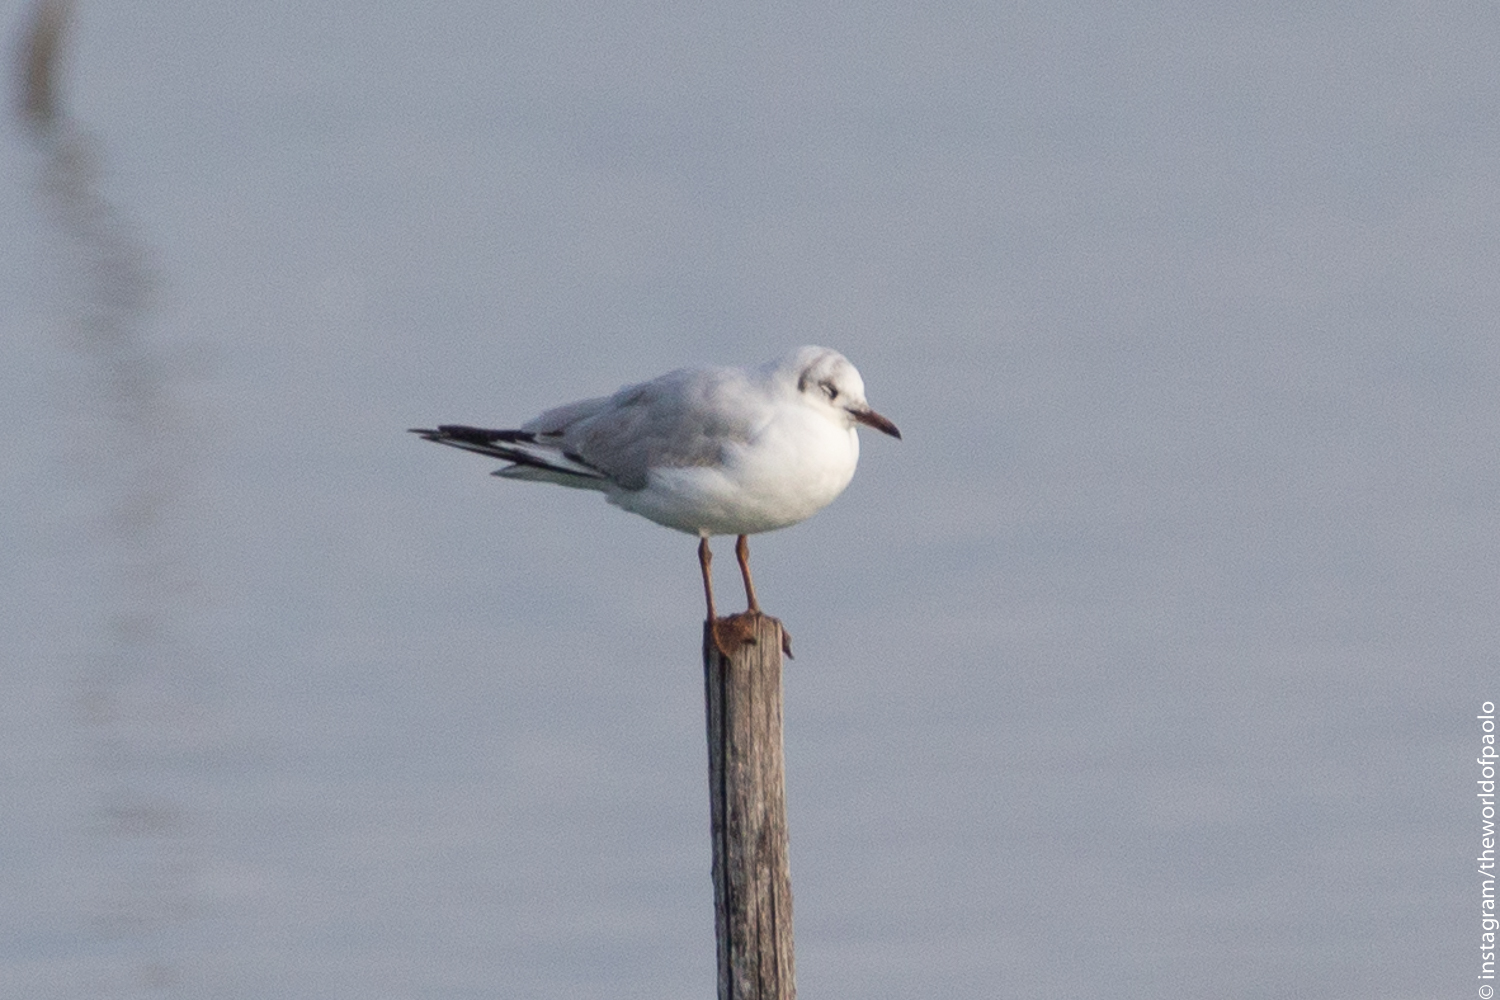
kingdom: Animalia
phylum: Chordata
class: Aves
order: Charadriiformes
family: Laridae
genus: Chroicocephalus
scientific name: Chroicocephalus ridibundus
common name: Black-headed gull
